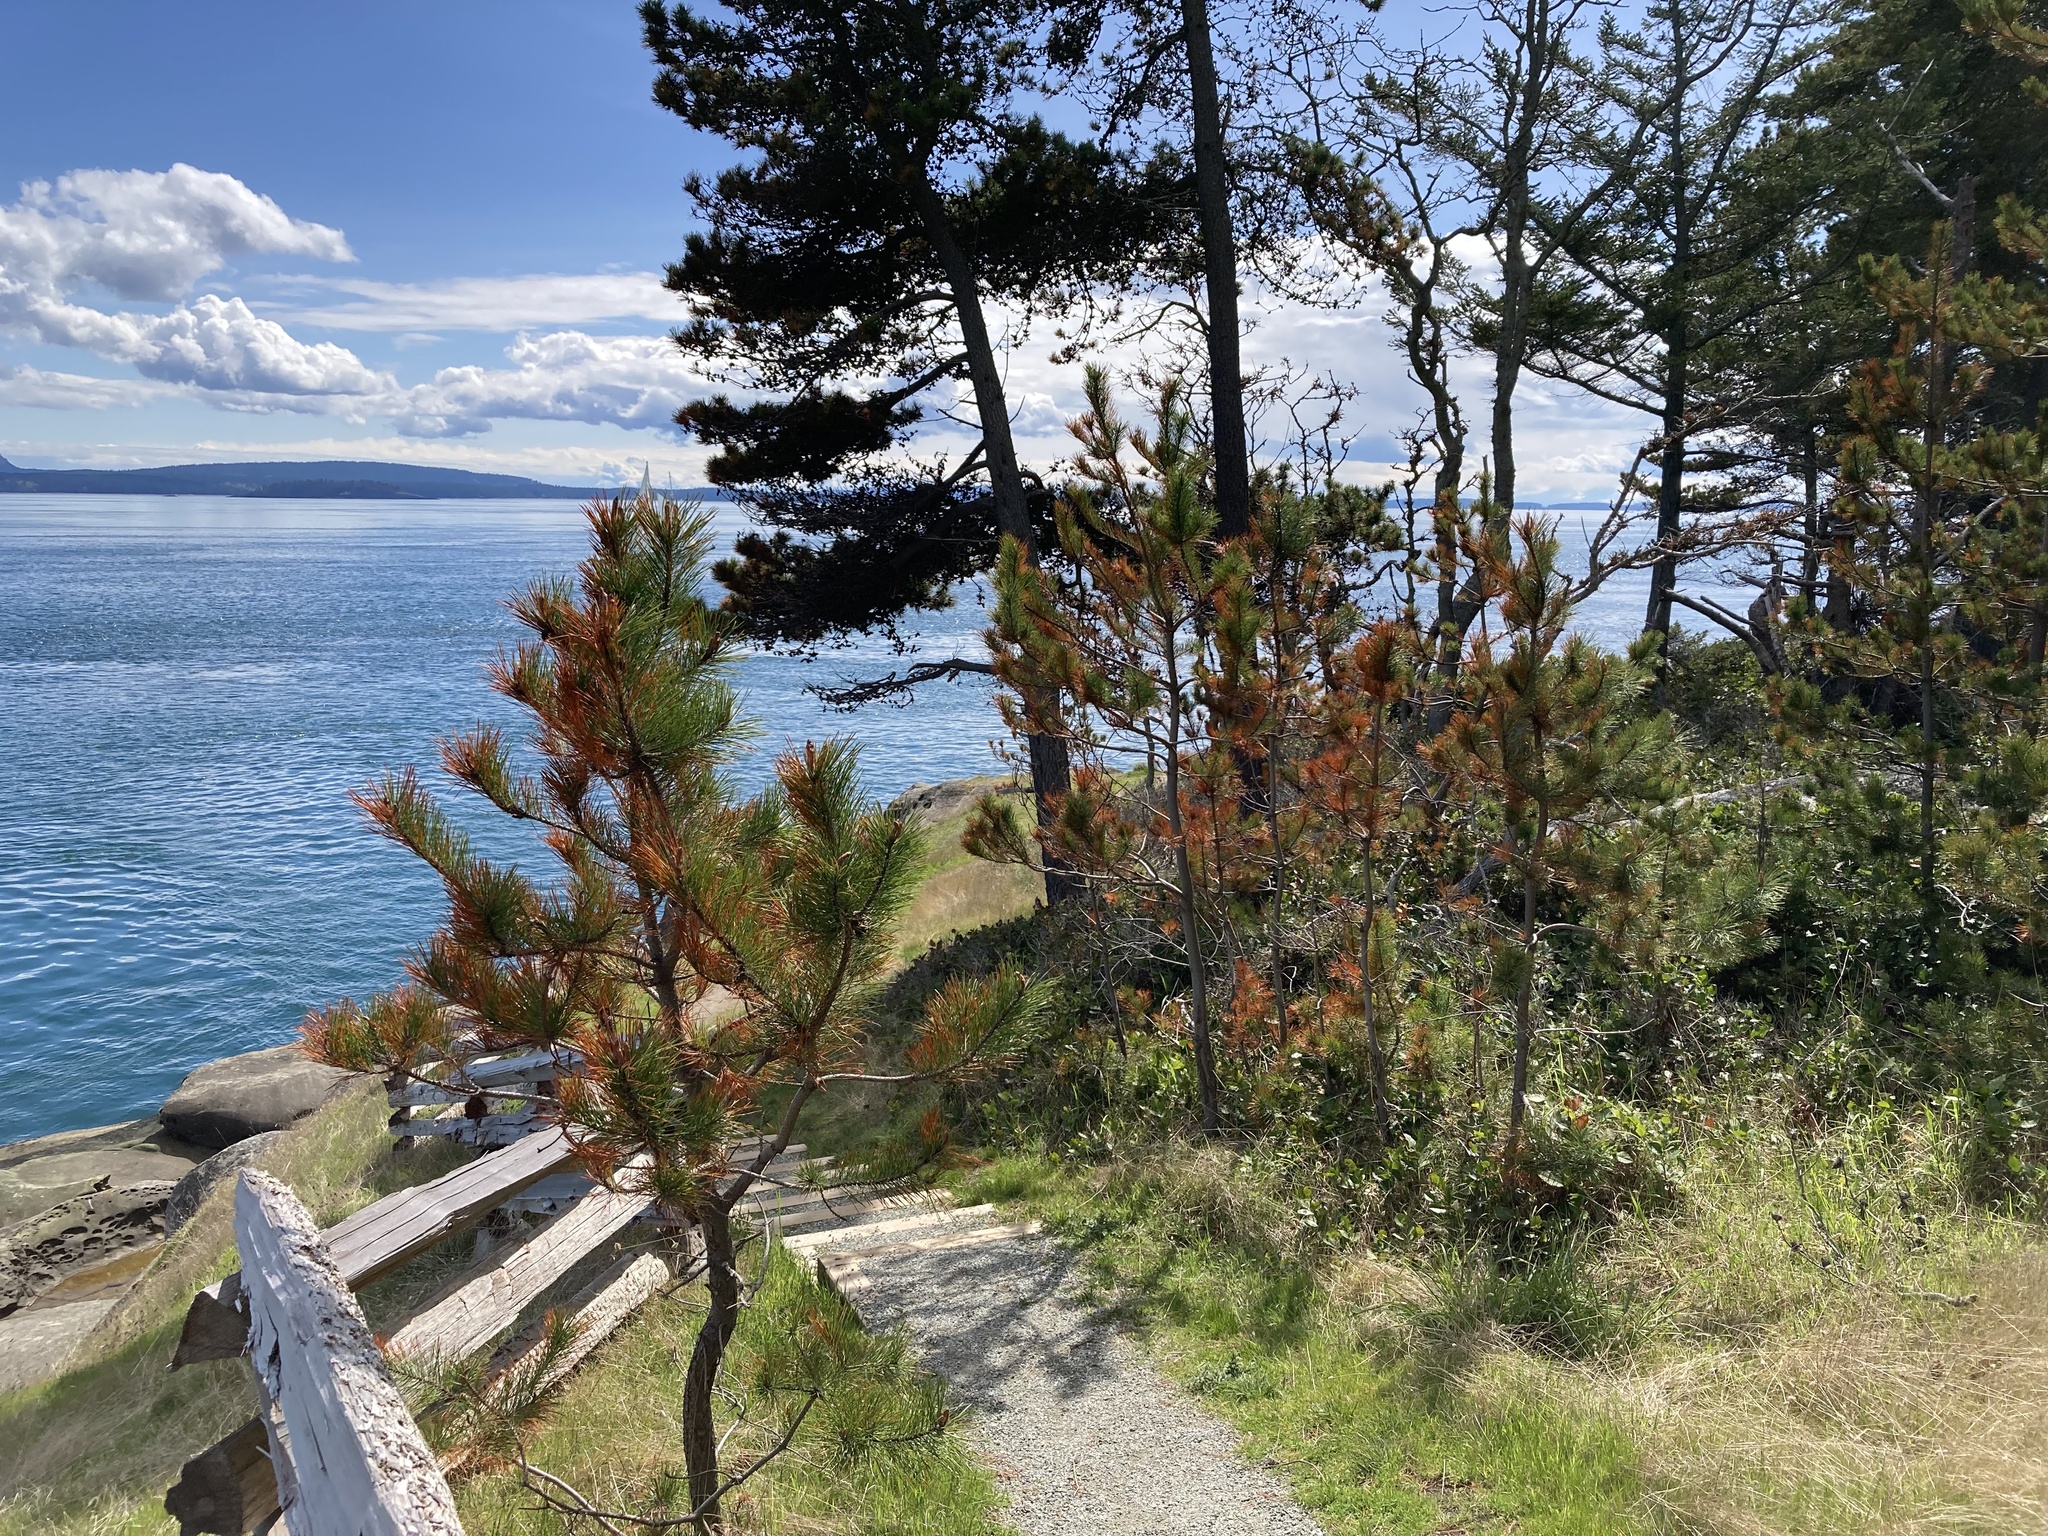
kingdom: Plantae
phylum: Tracheophyta
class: Pinopsida
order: Pinales
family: Pinaceae
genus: Pinus
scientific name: Pinus contorta
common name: Lodgepole pine
